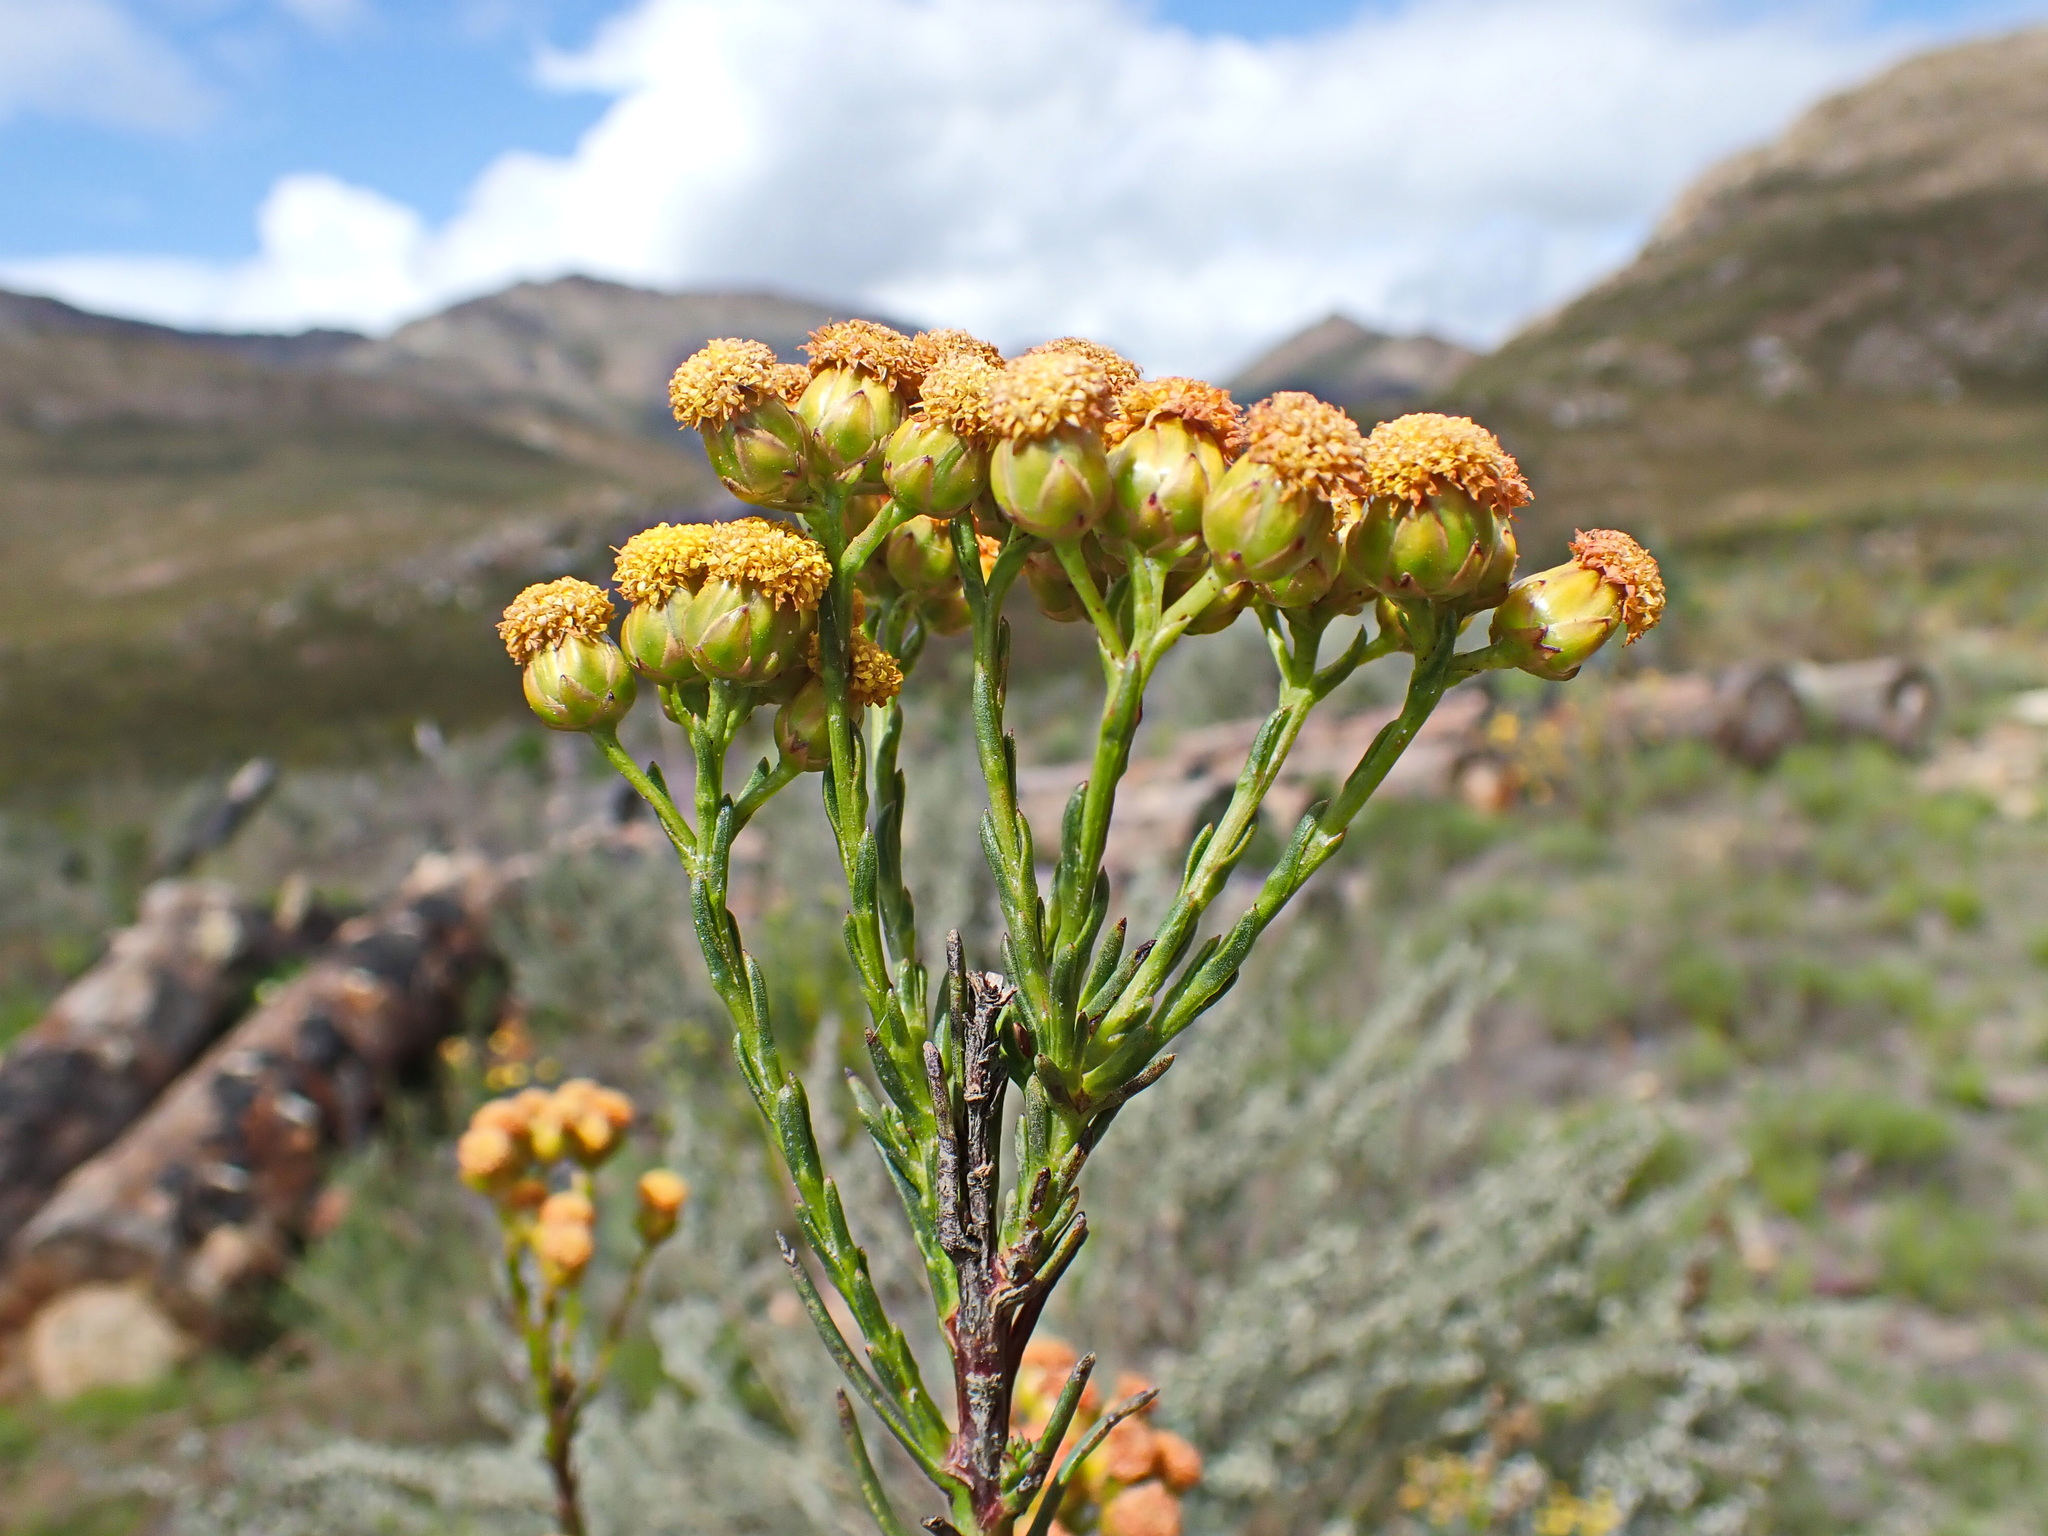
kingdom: Plantae
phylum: Tracheophyta
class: Magnoliopsida
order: Asterales
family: Asteraceae
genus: Athanasia
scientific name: Athanasia linifolia
